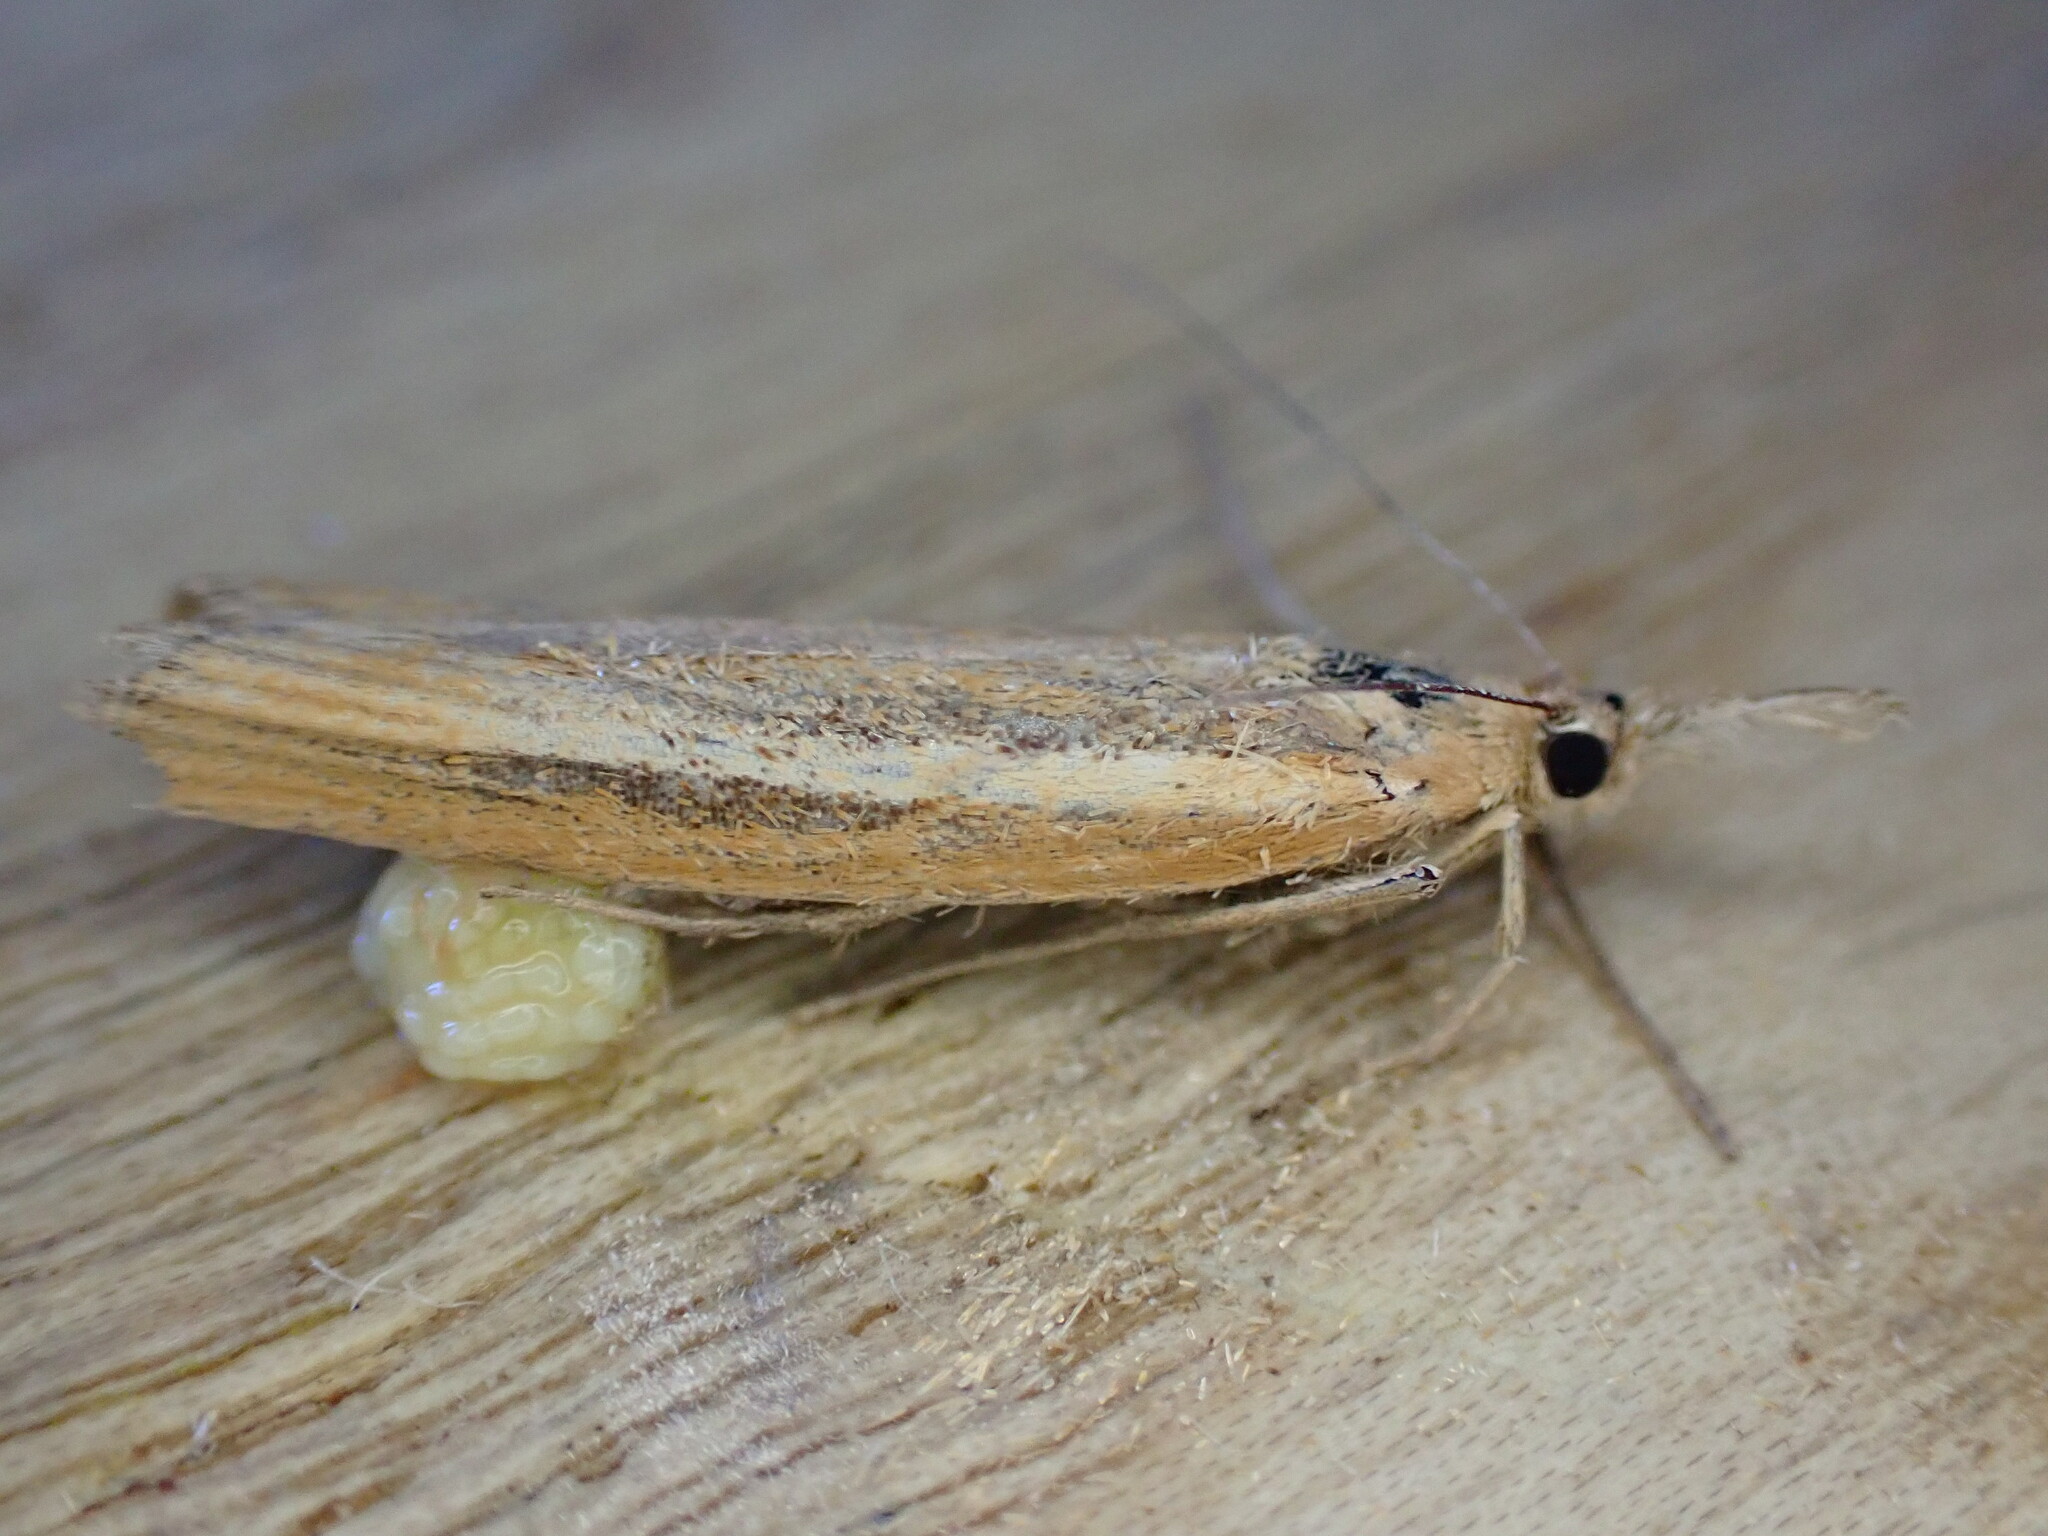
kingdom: Animalia
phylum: Arthropoda
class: Insecta
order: Lepidoptera
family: Crambidae
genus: Agriphila
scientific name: Agriphila tristellus
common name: Common grass-veneer
